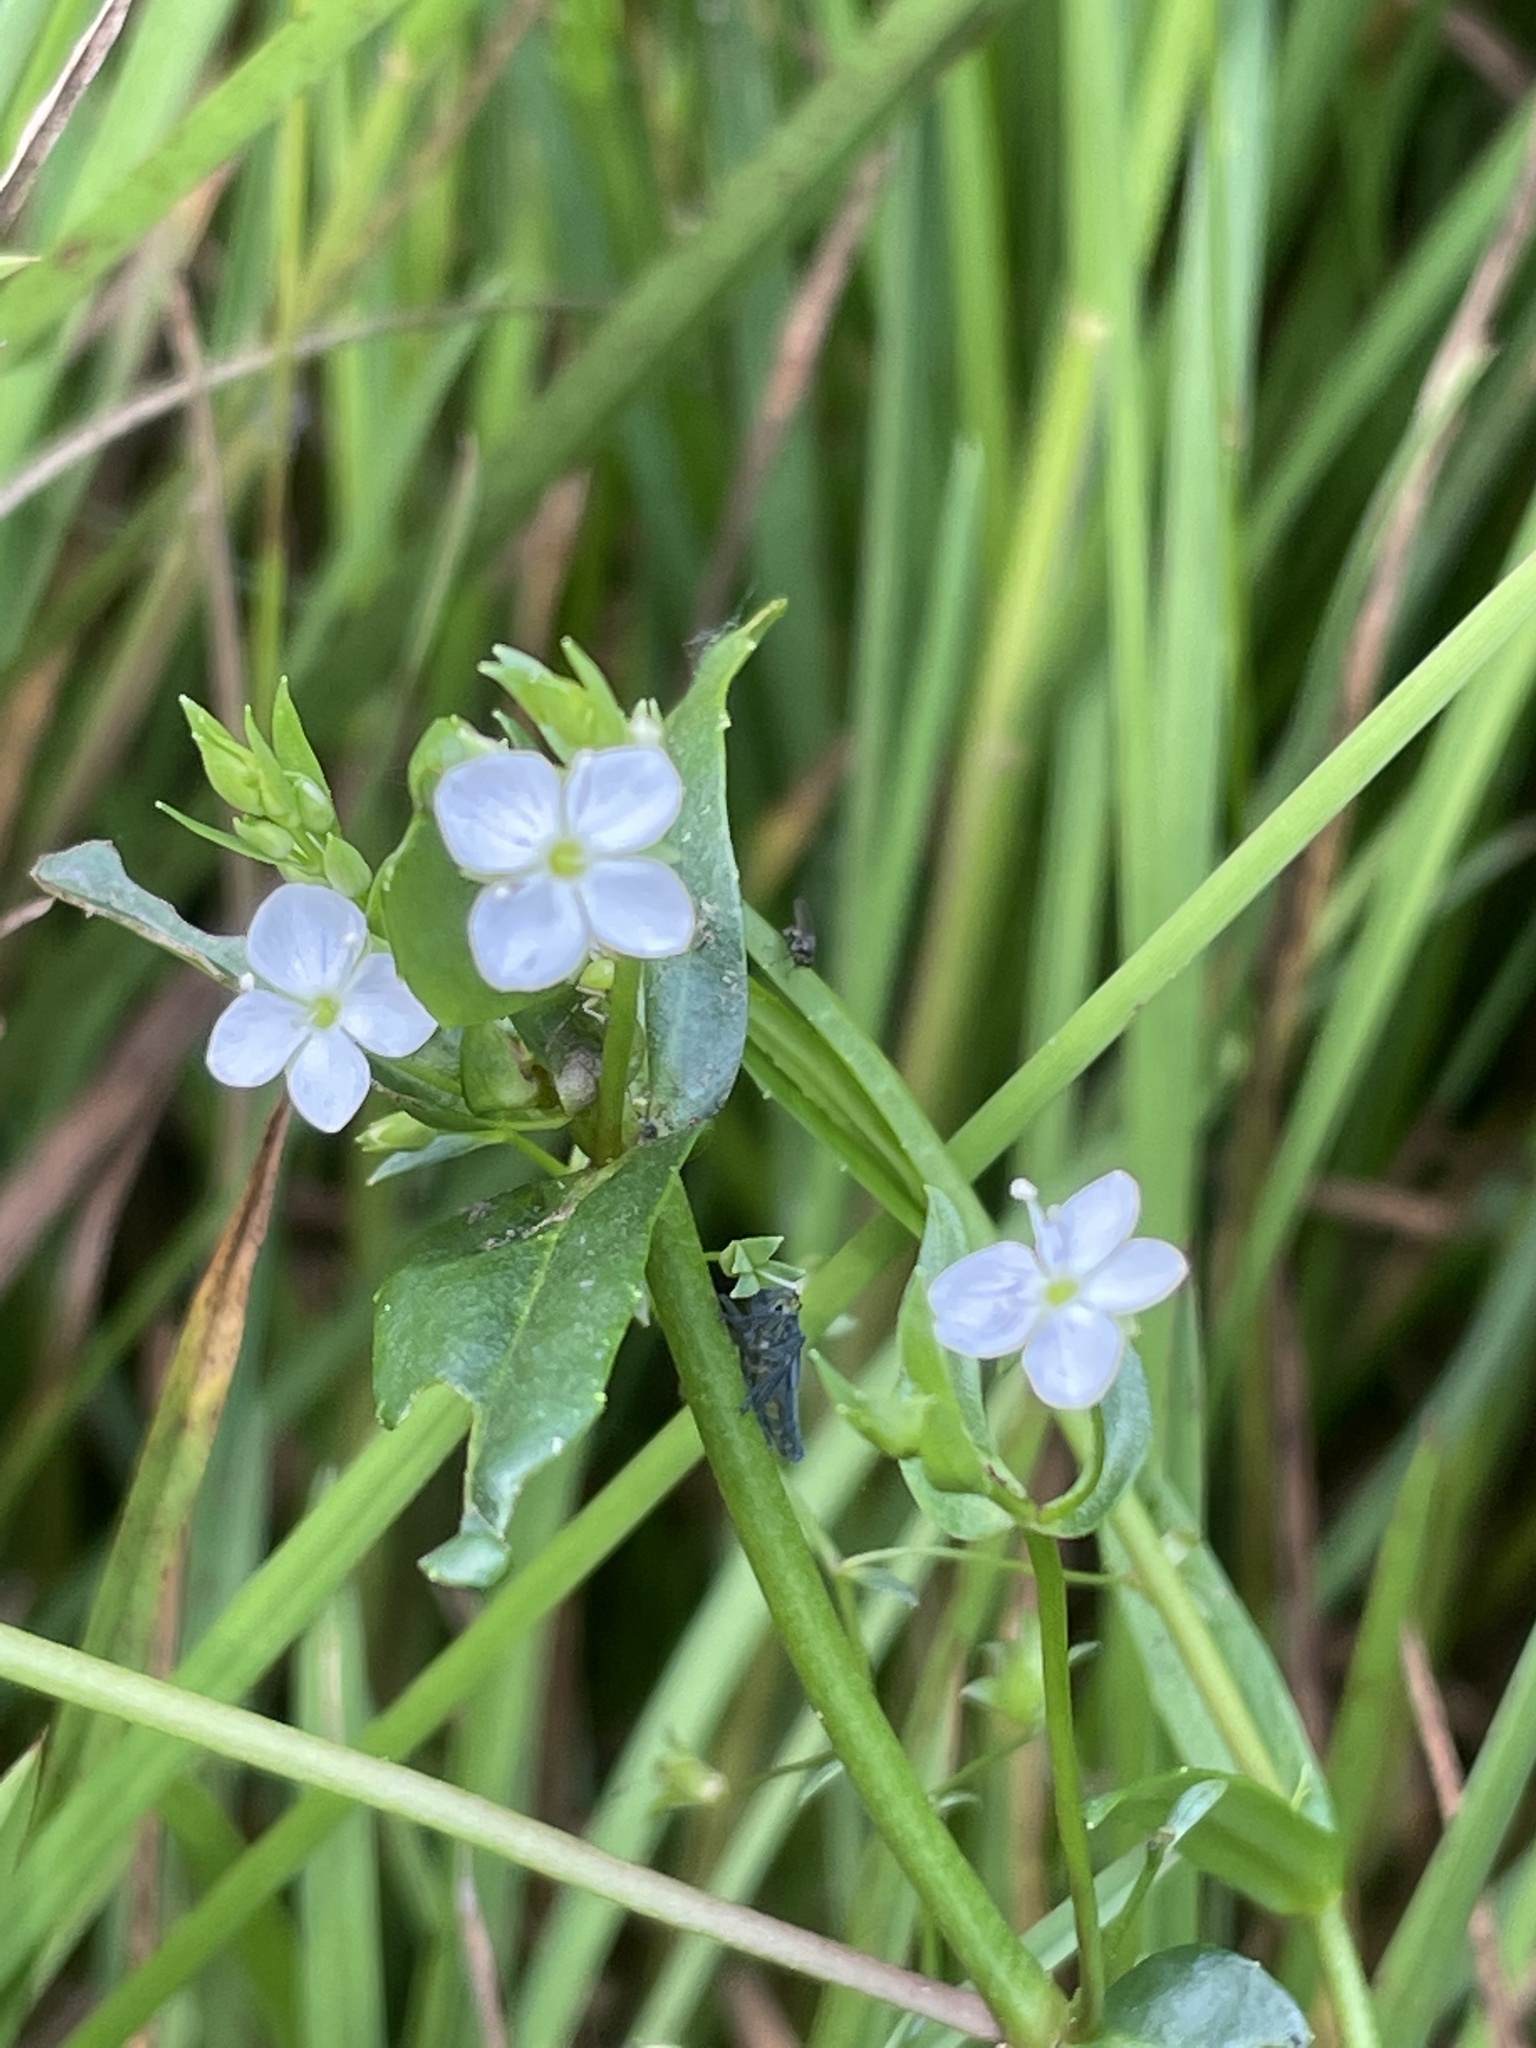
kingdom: Plantae
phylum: Tracheophyta
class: Magnoliopsida
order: Lamiales
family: Plantaginaceae
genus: Veronica
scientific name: Veronica scutellata
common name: Marsh speedwell
